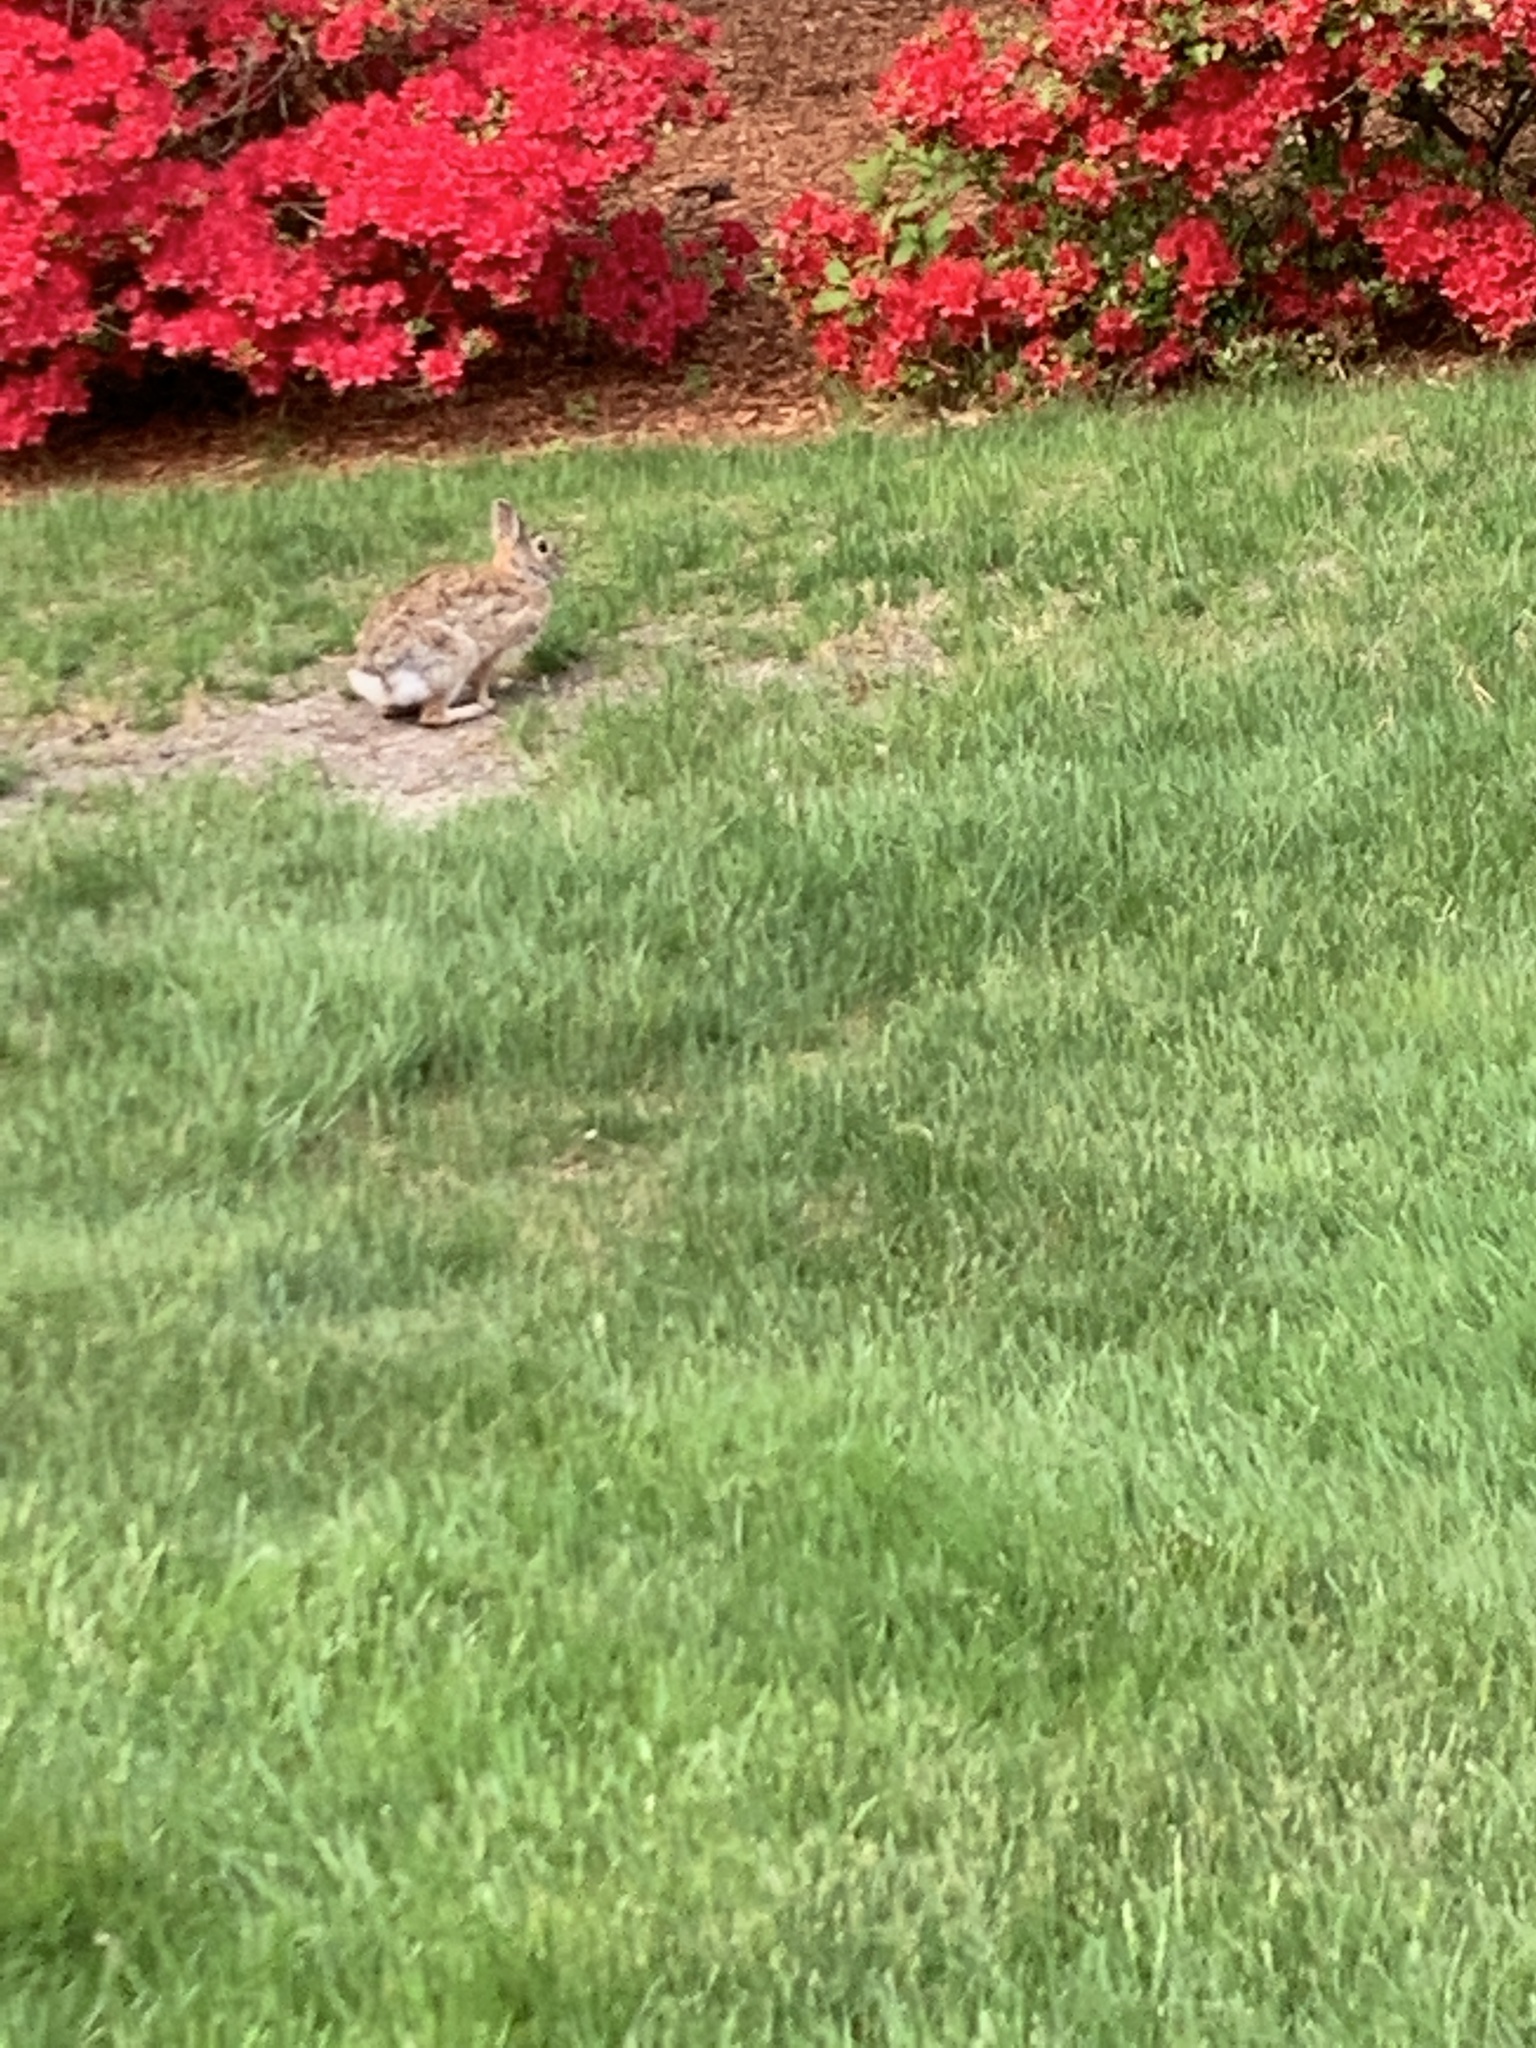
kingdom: Animalia
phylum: Chordata
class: Mammalia
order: Lagomorpha
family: Leporidae
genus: Sylvilagus
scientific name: Sylvilagus floridanus
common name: Eastern cottontail
